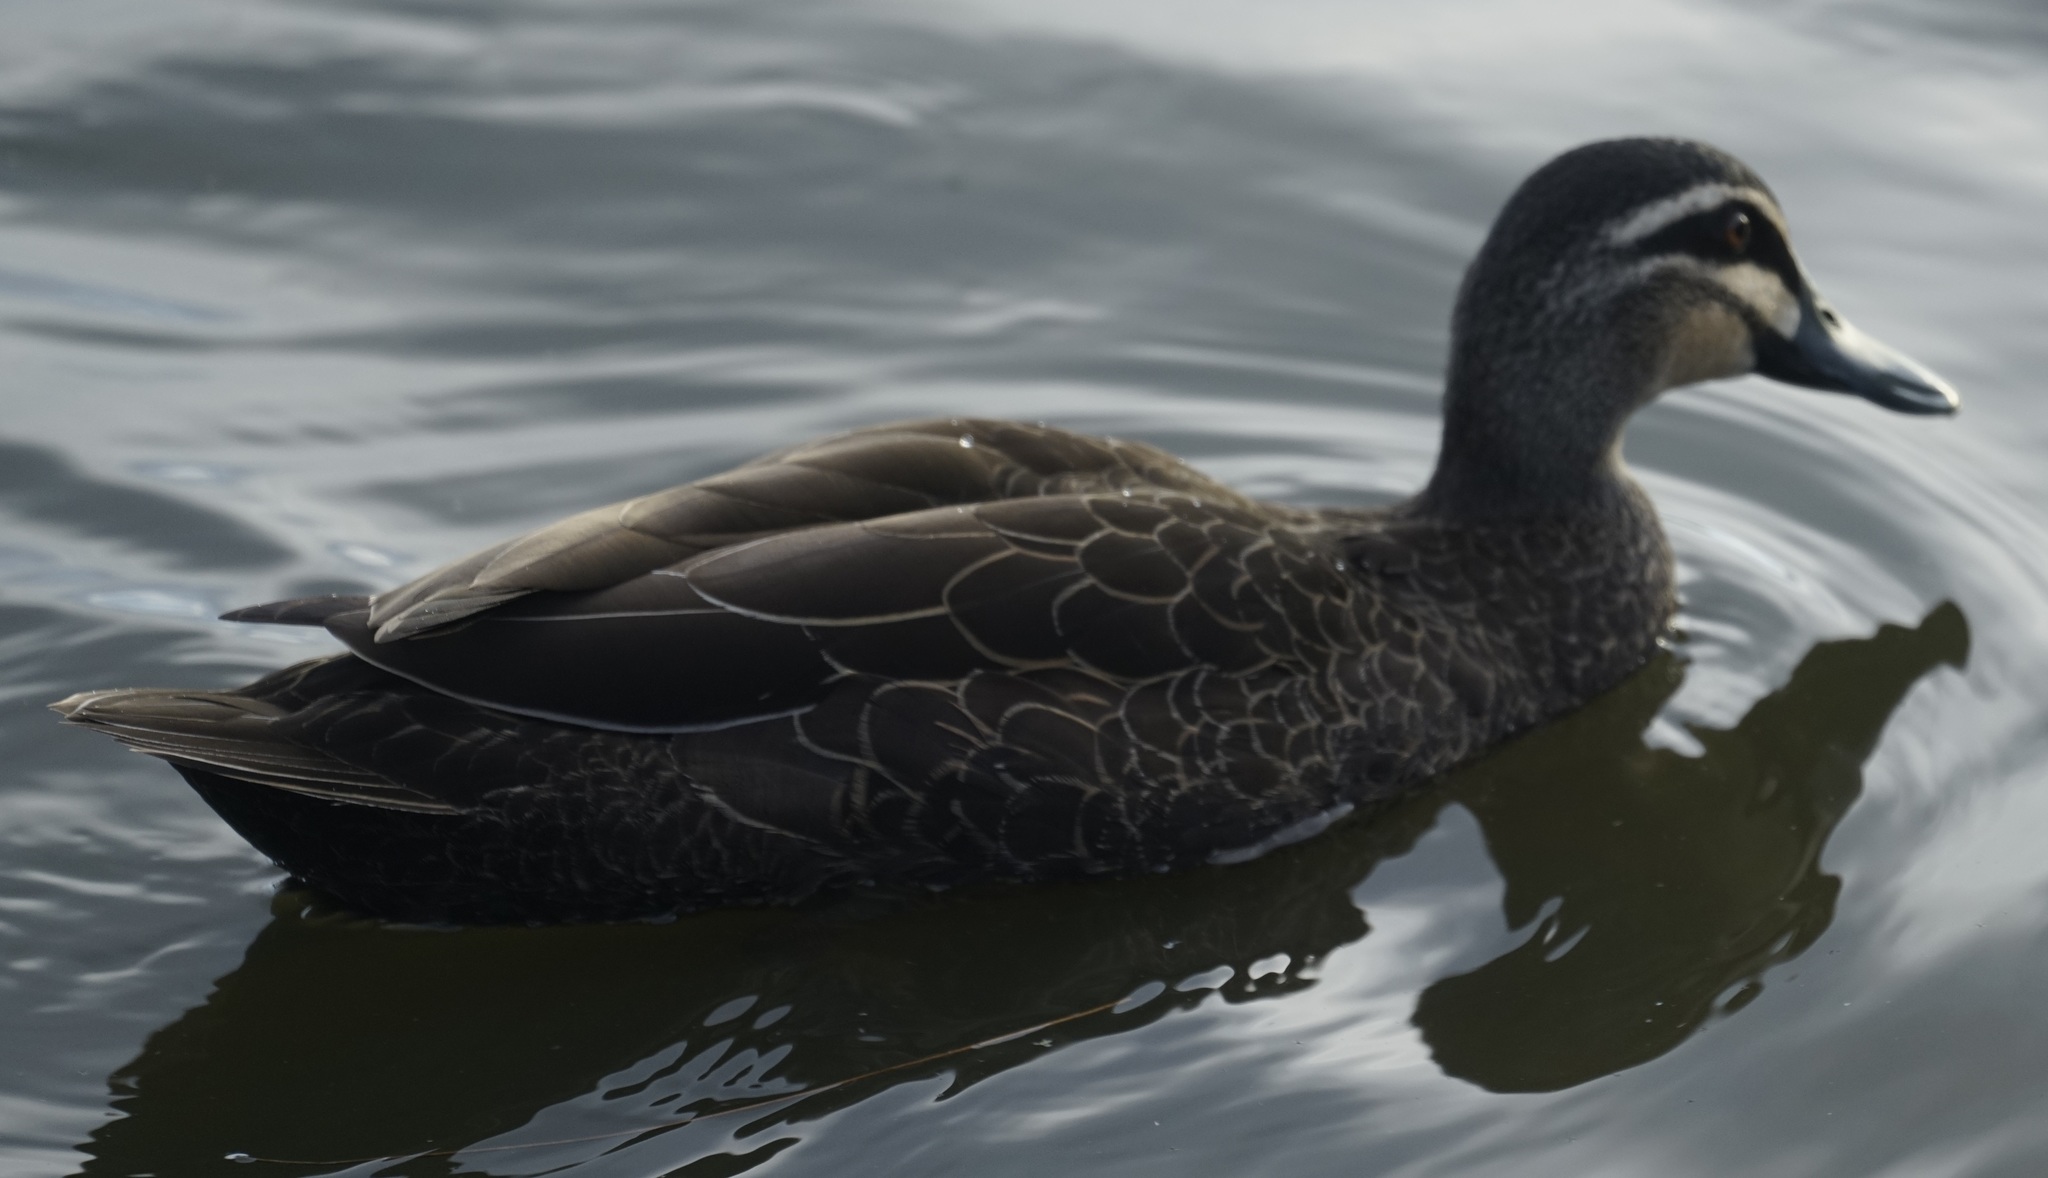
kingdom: Animalia
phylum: Chordata
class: Aves
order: Anseriformes
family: Anatidae
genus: Anas
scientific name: Anas superciliosa
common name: Pacific black duck
